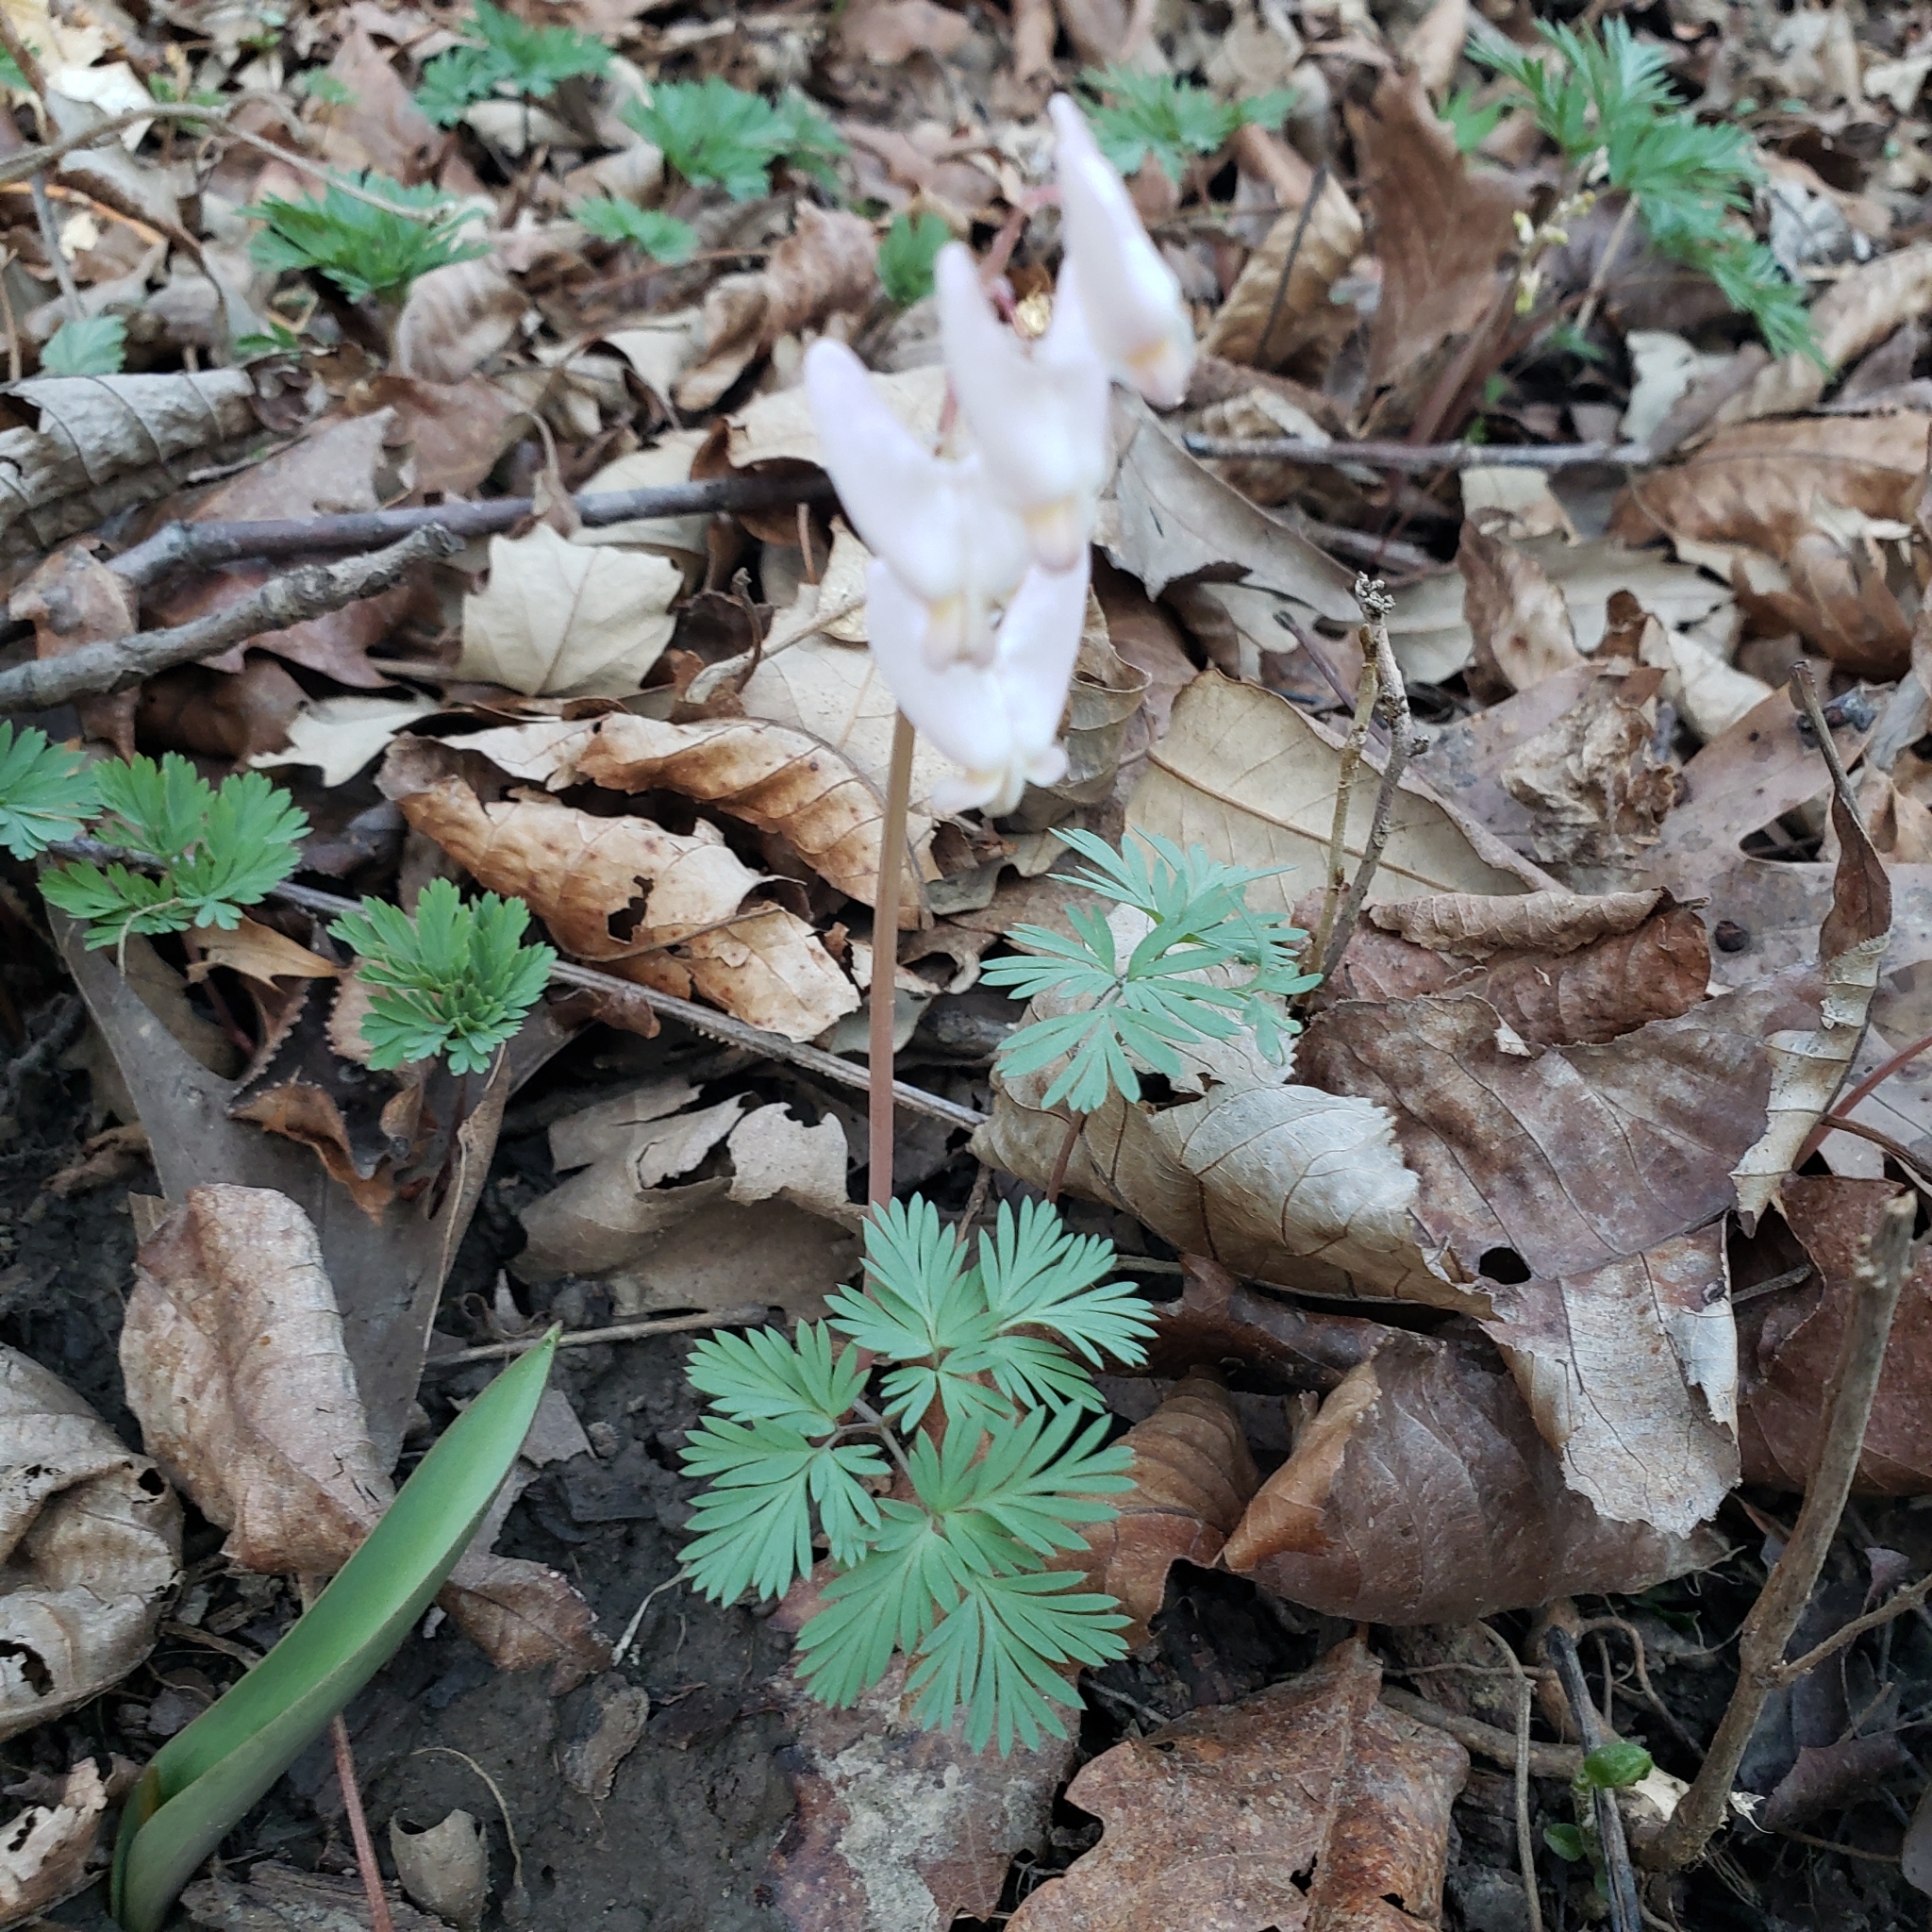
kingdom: Plantae
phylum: Tracheophyta
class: Magnoliopsida
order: Ranunculales
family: Papaveraceae
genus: Dicentra
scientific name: Dicentra cucullaria
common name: Dutchman's breeches
